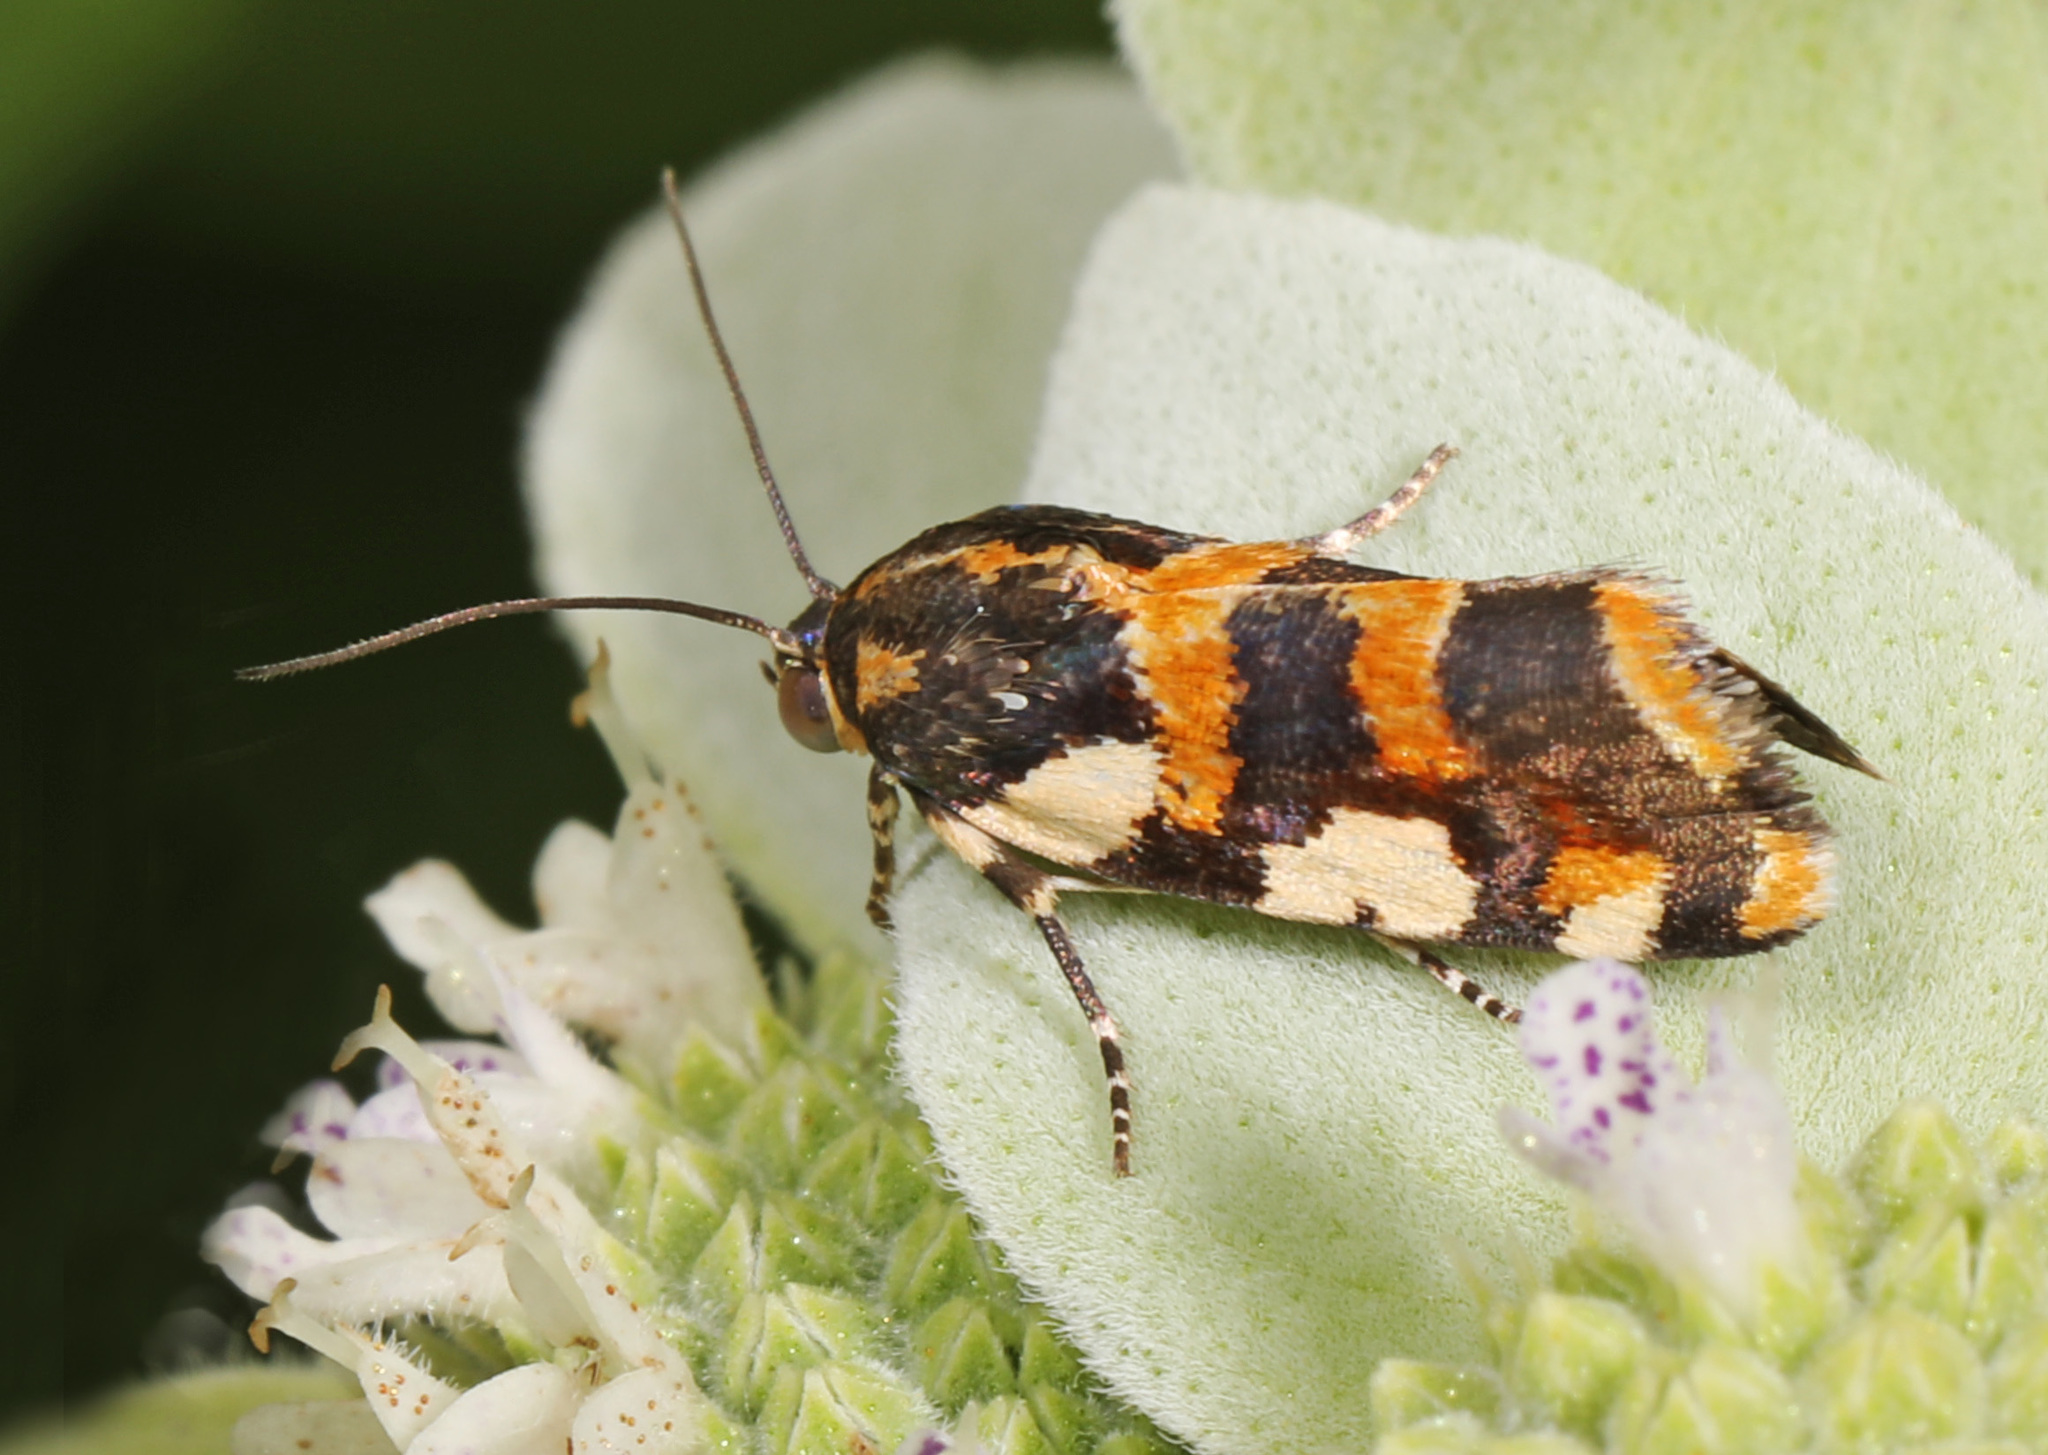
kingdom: Animalia
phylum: Arthropoda
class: Insecta
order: Lepidoptera
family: Noctuidae
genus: Acontia
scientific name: Acontia dama
